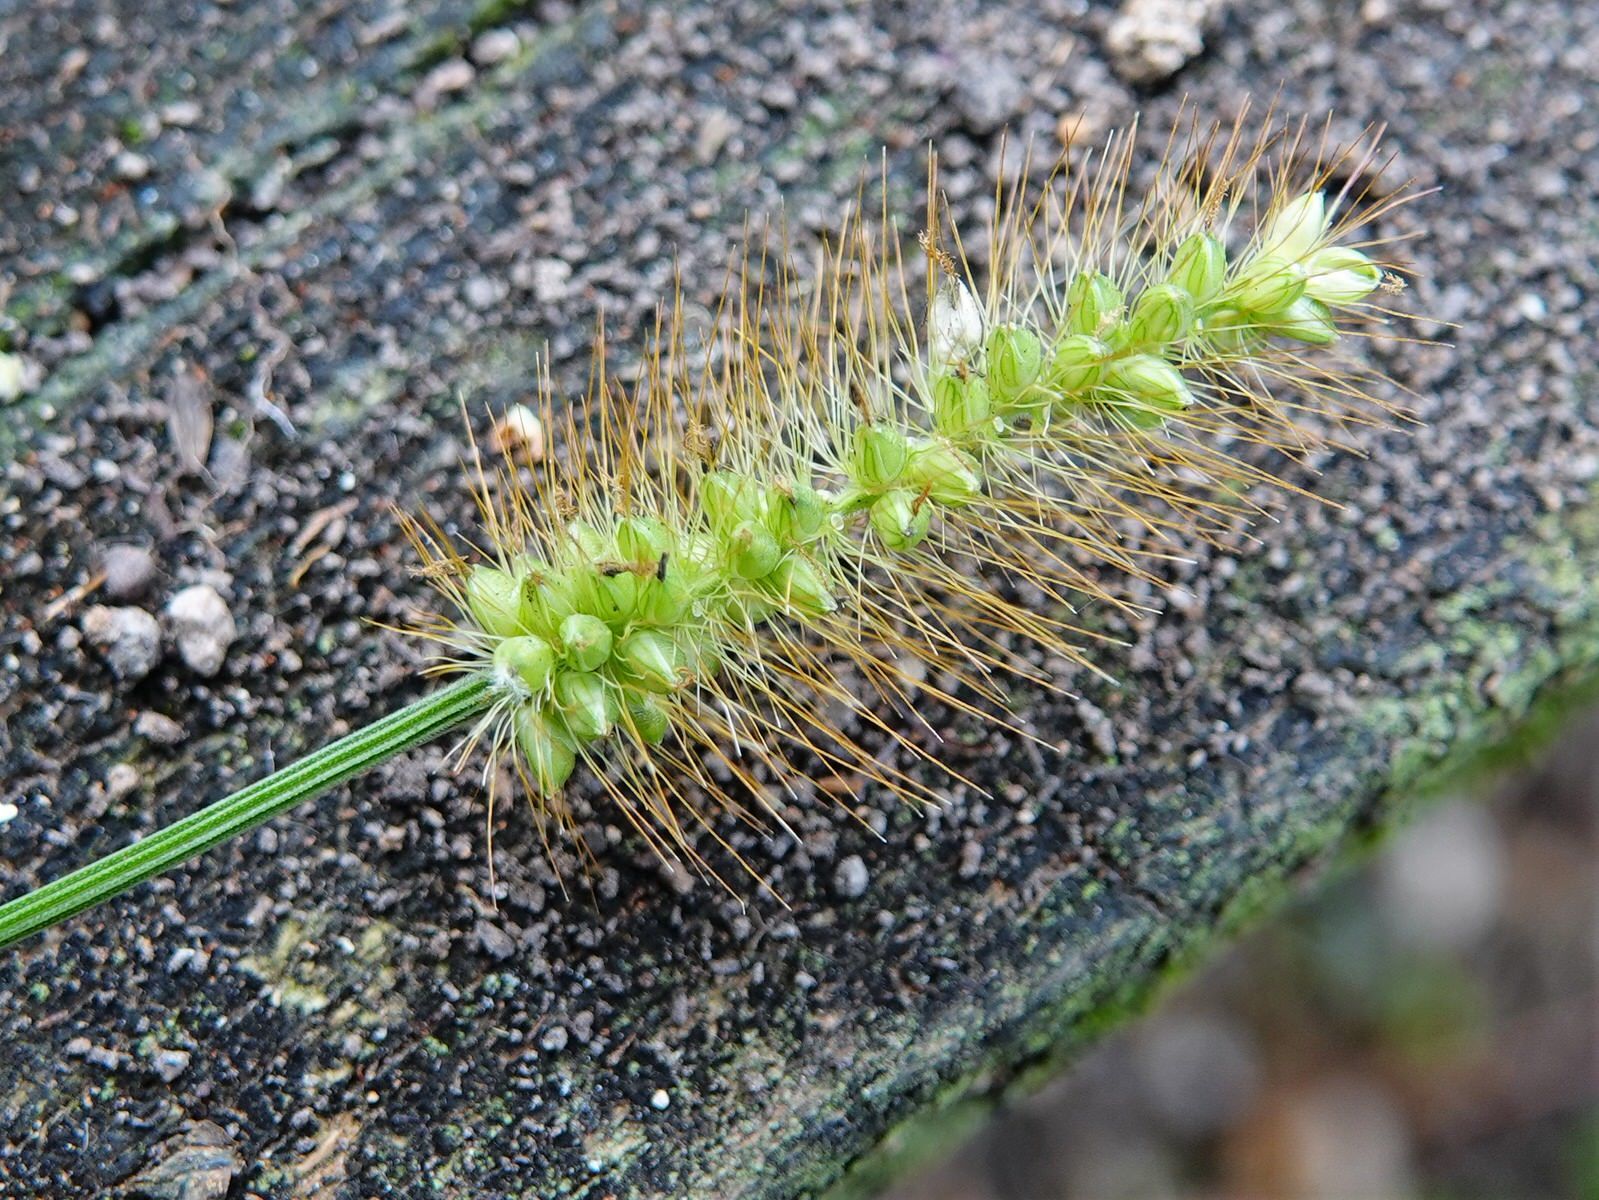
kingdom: Plantae
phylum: Tracheophyta
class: Liliopsida
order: Poales
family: Poaceae
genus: Setaria
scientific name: Setaria pumila
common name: Yellow bristle-grass
